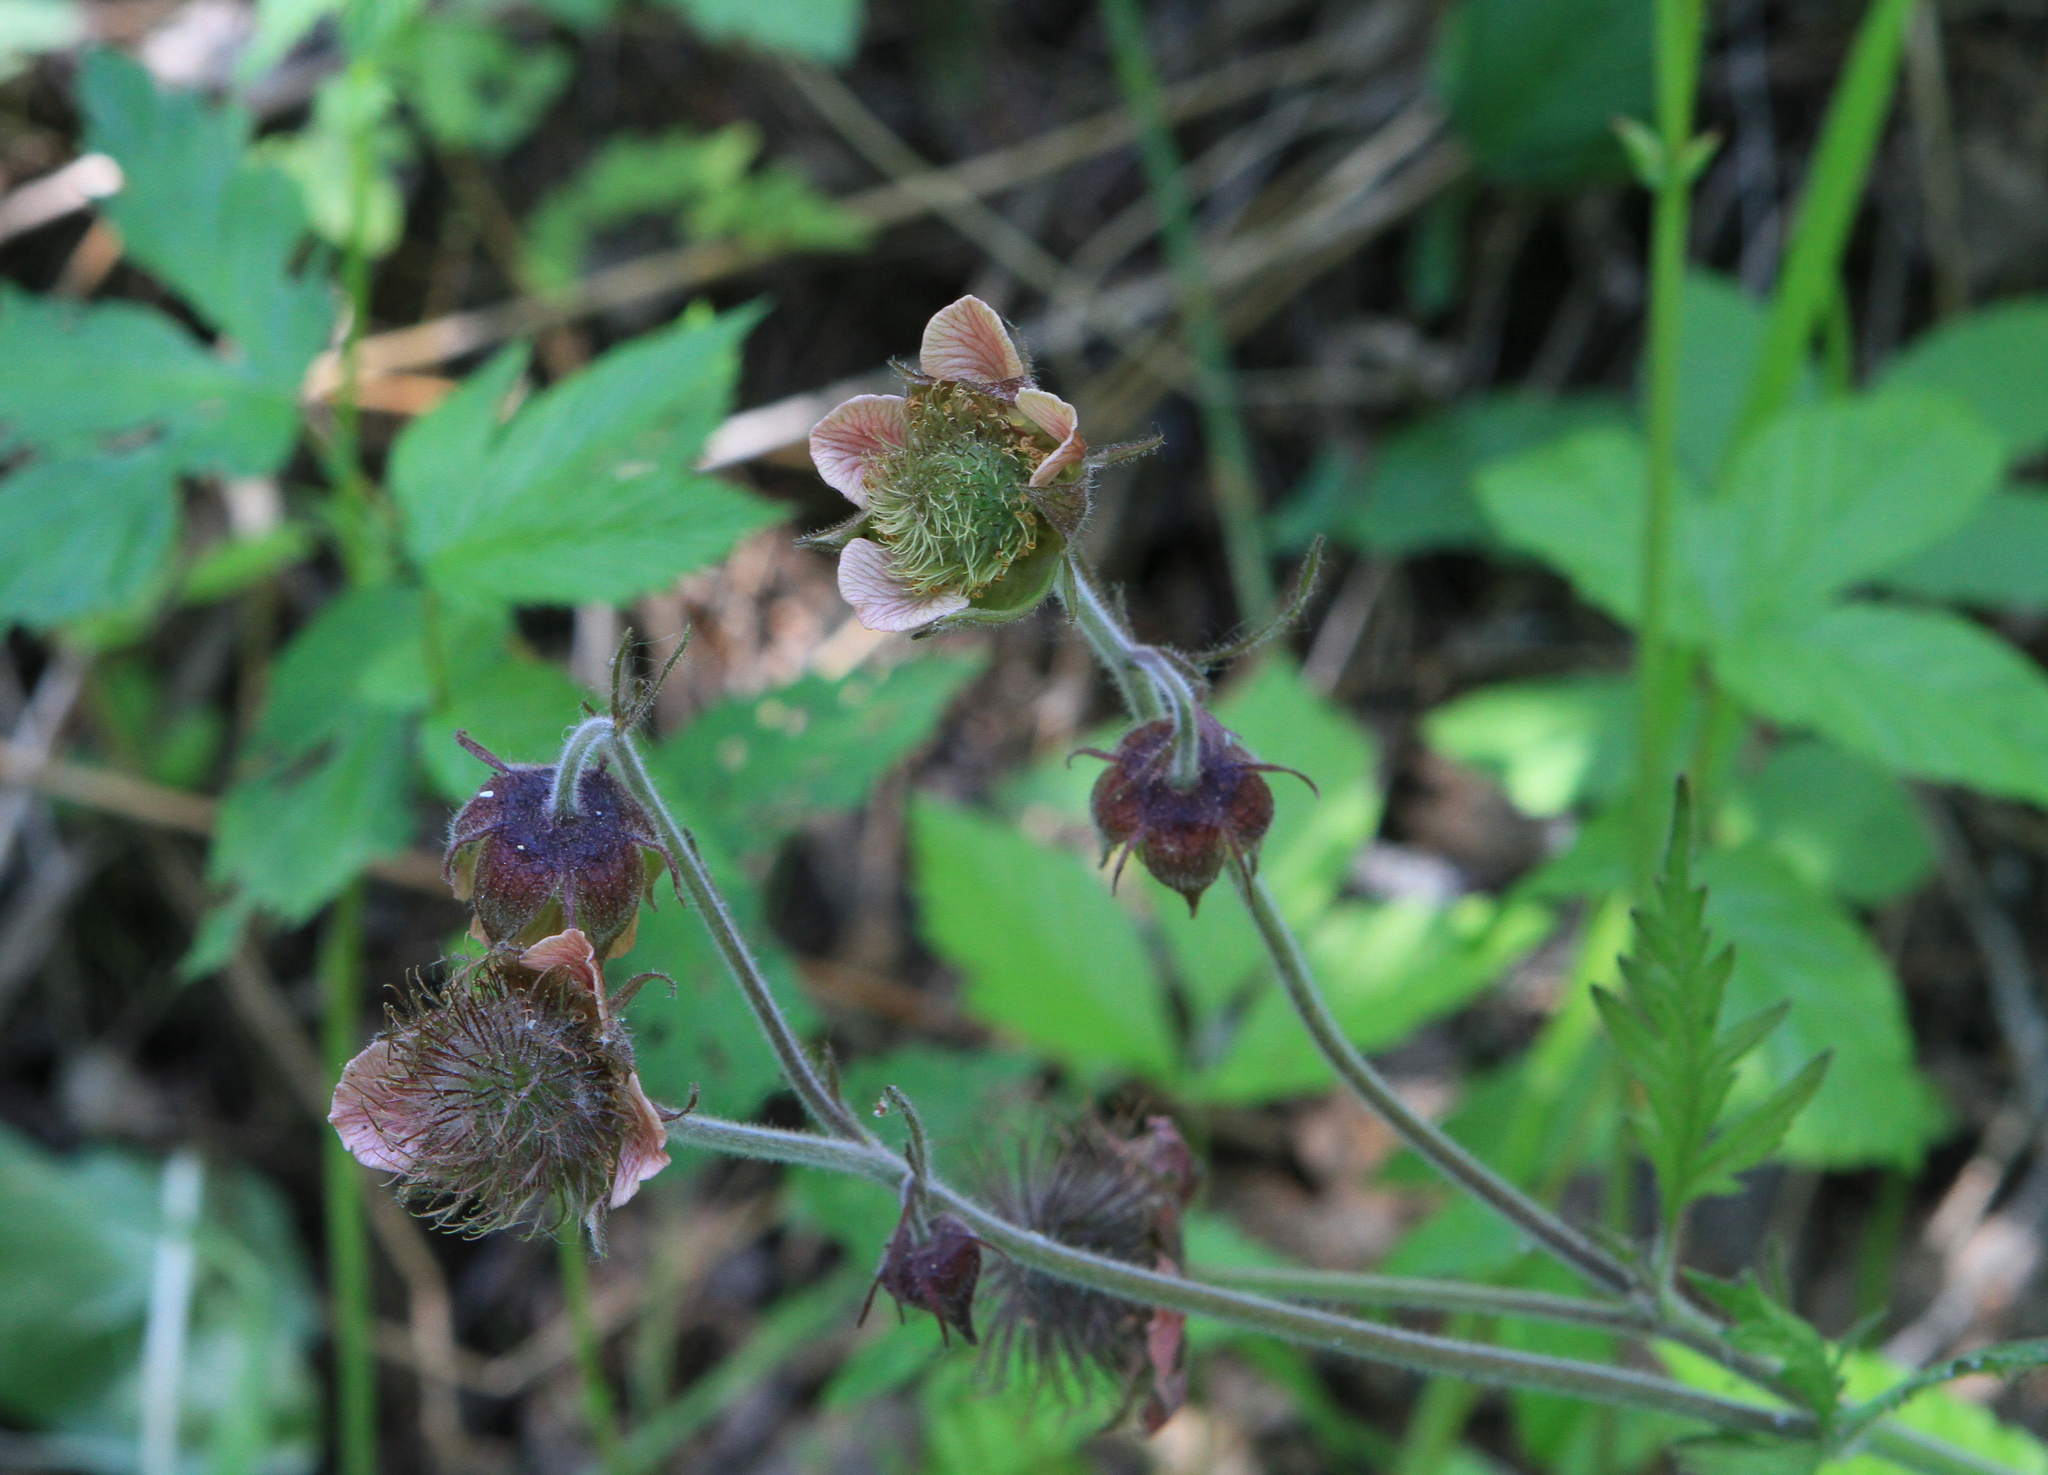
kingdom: Plantae
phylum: Tracheophyta
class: Magnoliopsida
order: Rosales
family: Rosaceae
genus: Geum
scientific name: Geum rivale
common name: Water avens
